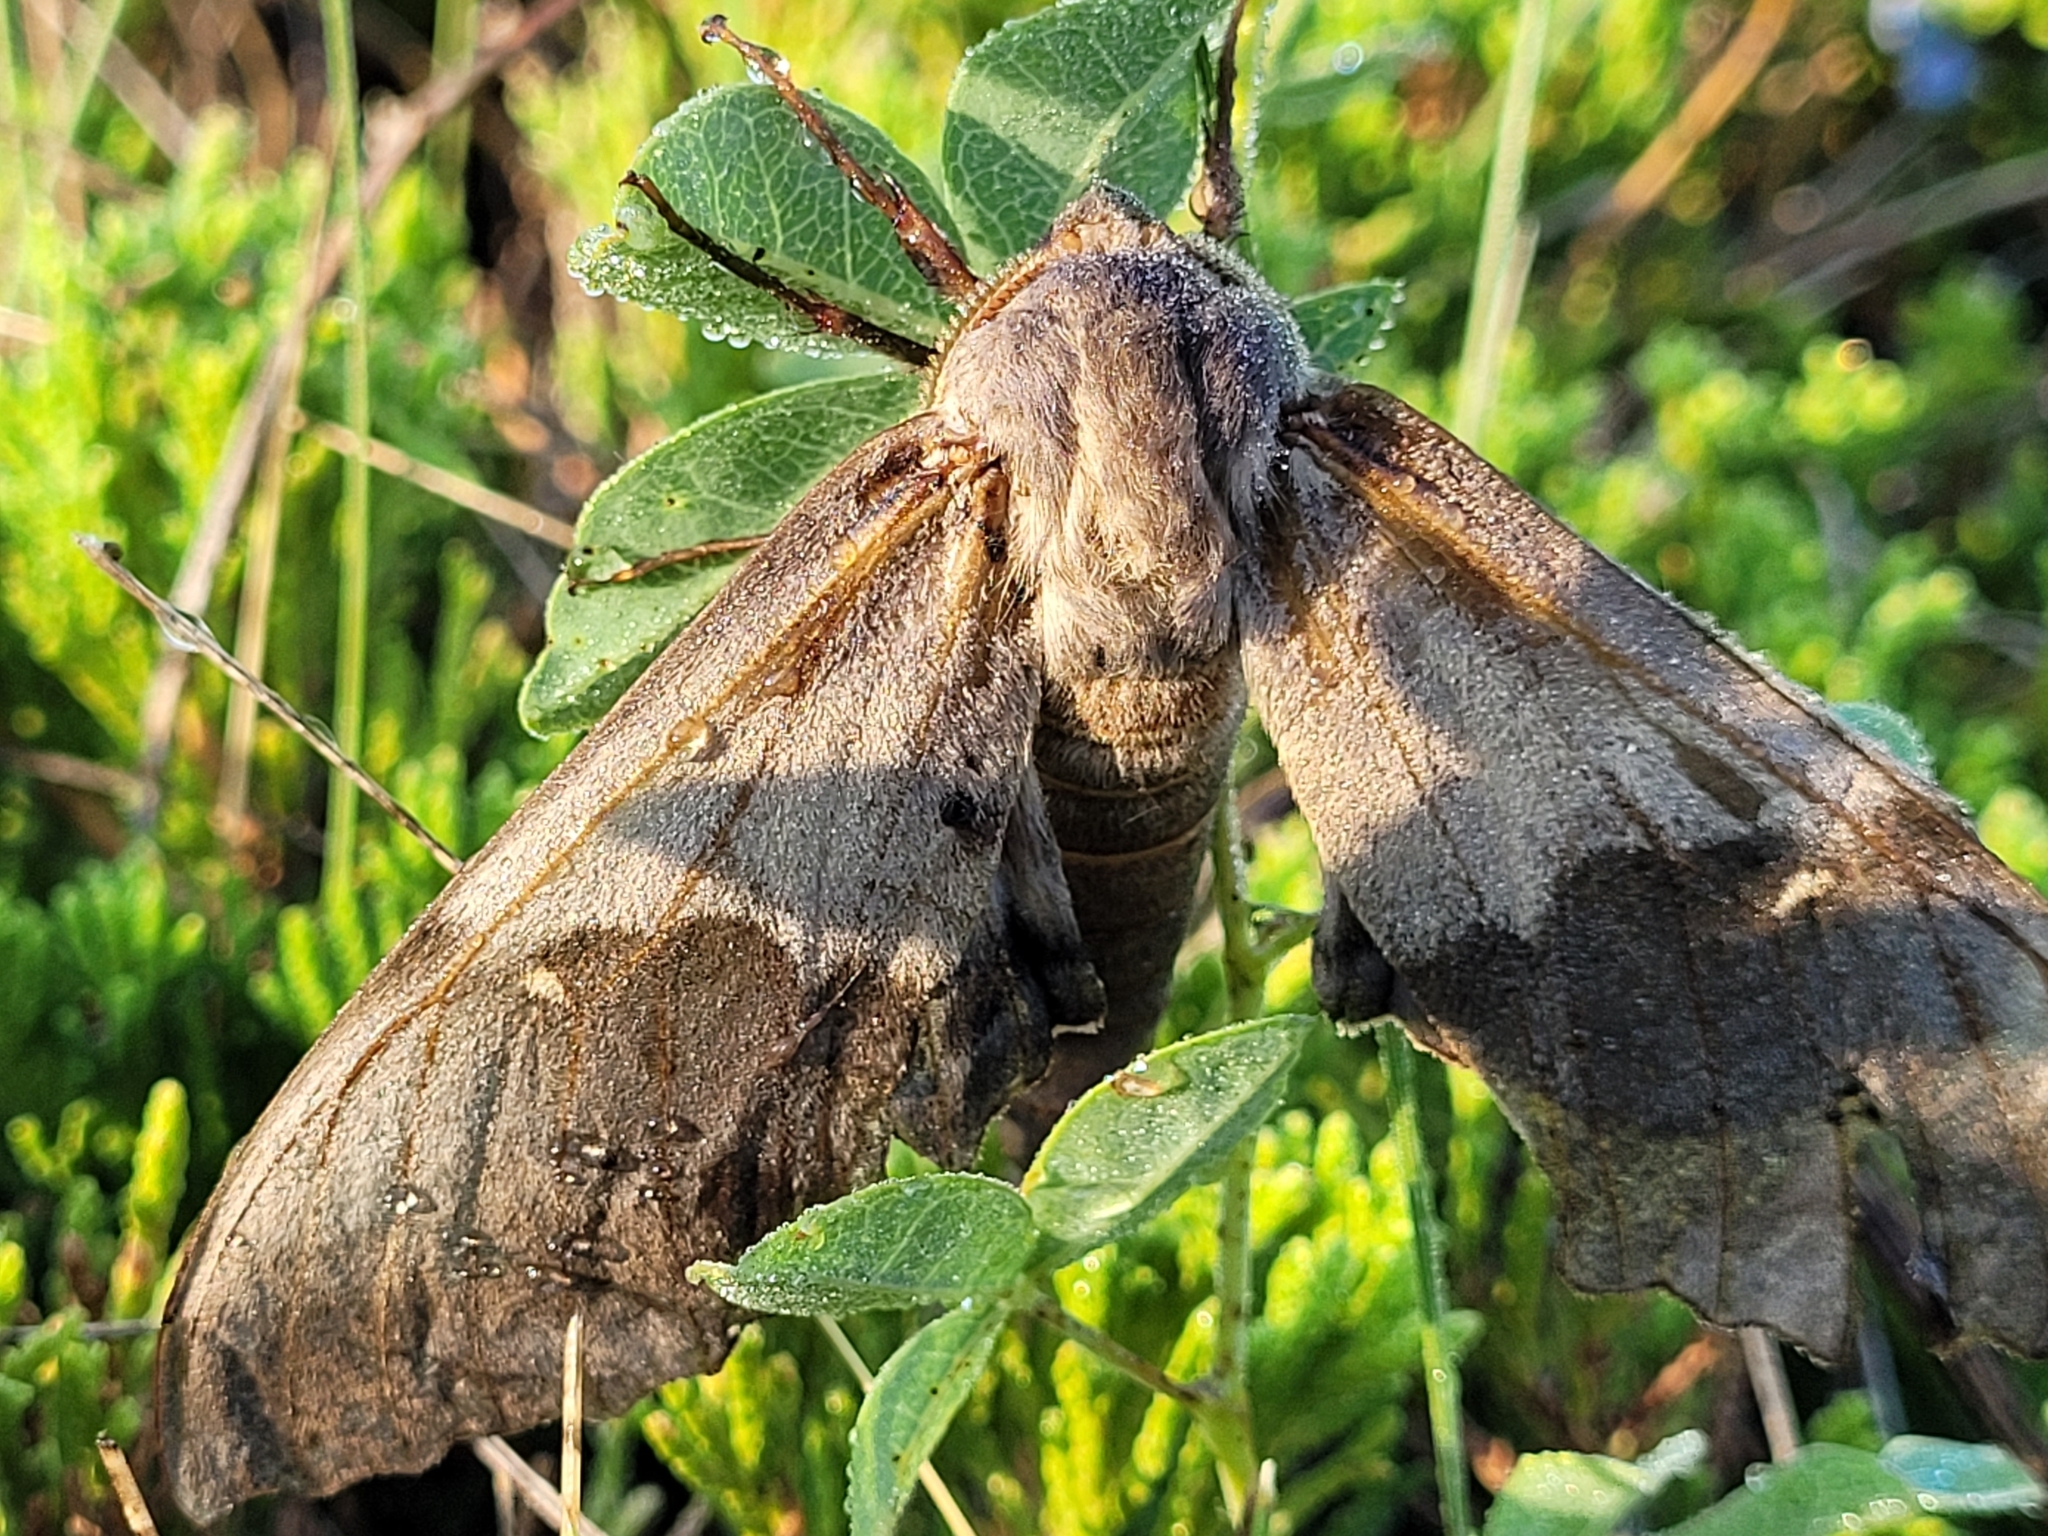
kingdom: Animalia
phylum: Arthropoda
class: Insecta
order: Lepidoptera
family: Sphingidae
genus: Pachysphinx
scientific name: Pachysphinx modesta
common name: Big poplar sphinx
